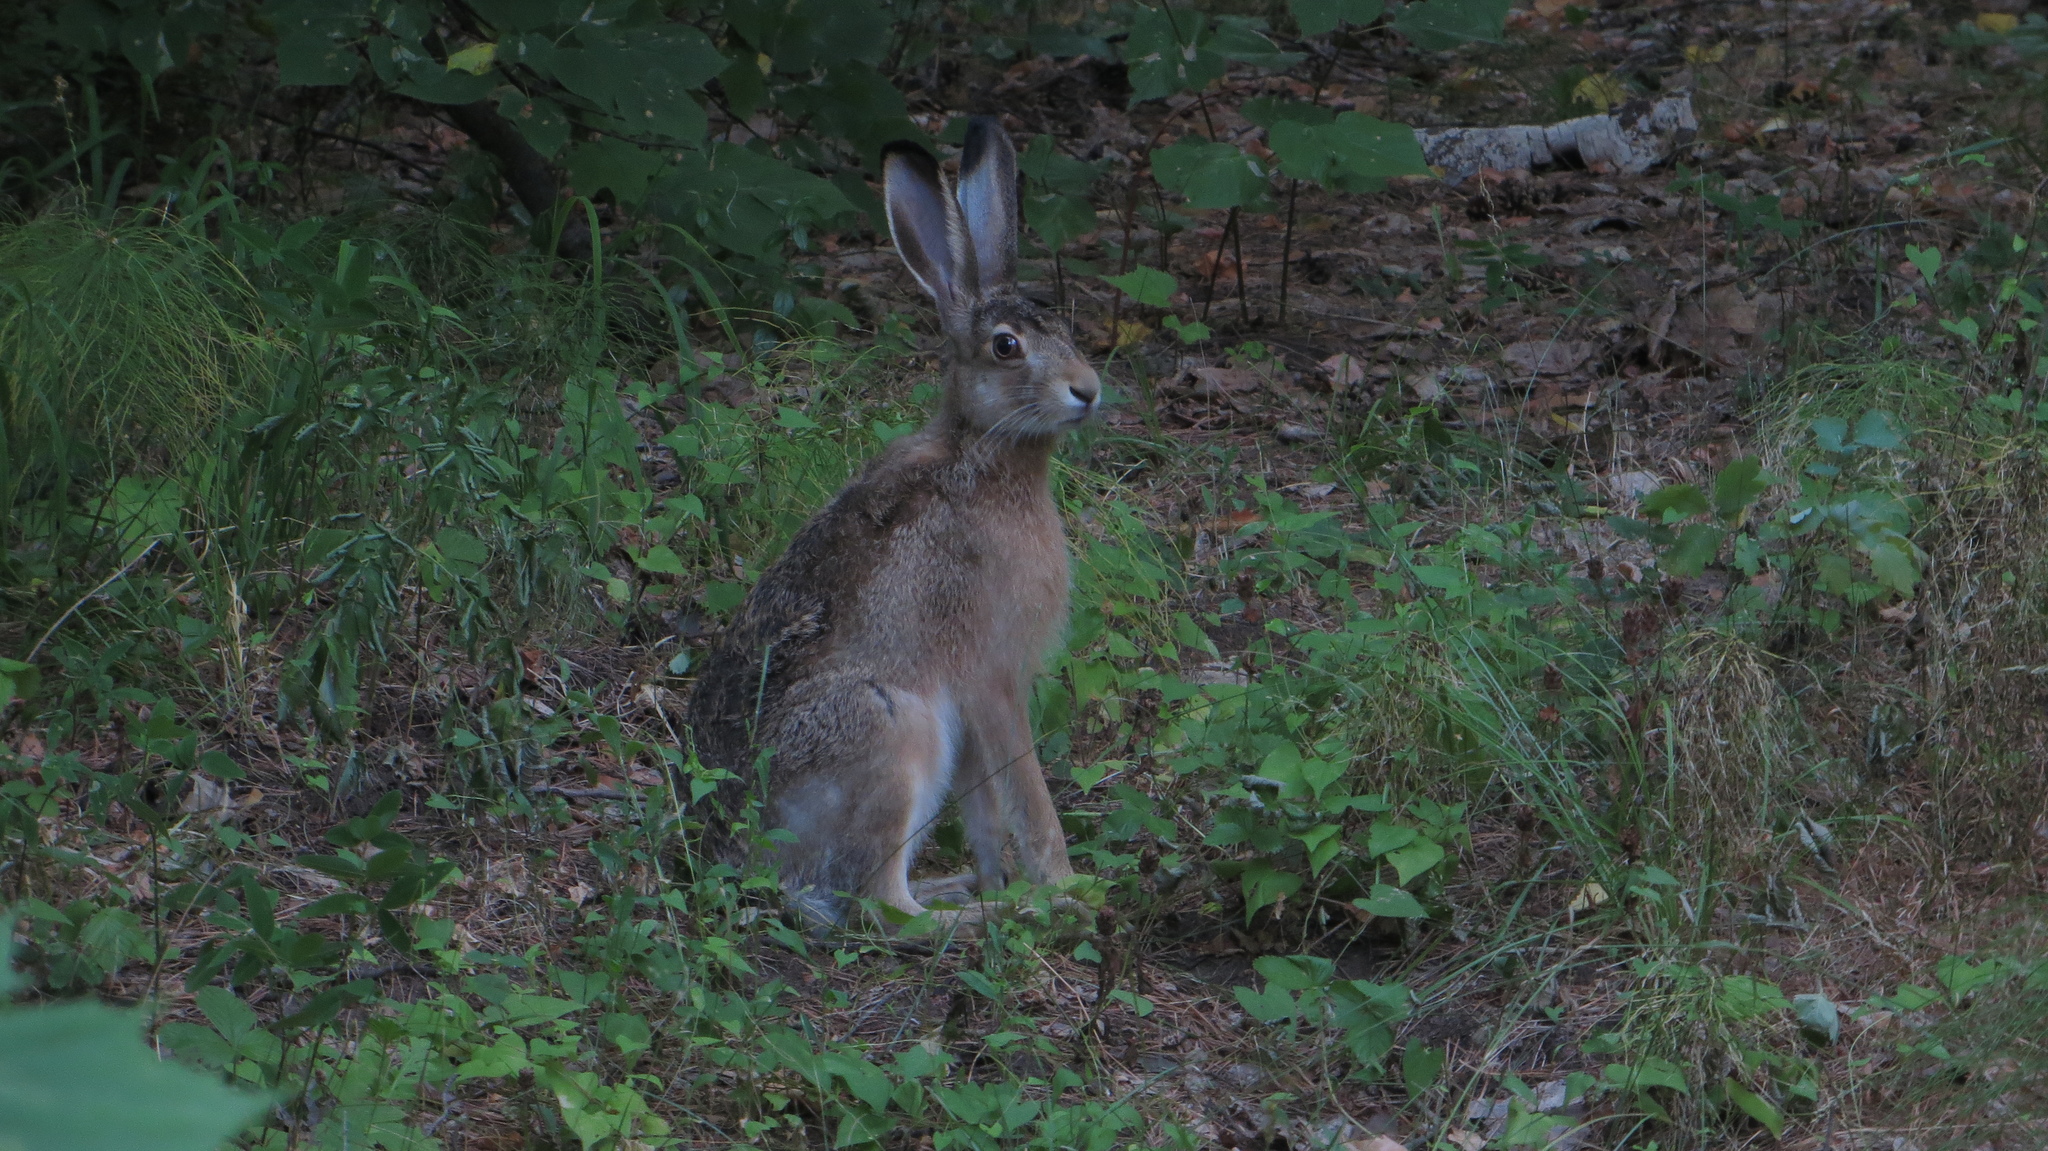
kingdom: Animalia
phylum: Chordata
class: Mammalia
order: Lagomorpha
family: Leporidae
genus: Lepus
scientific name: Lepus europaeus
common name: European hare
